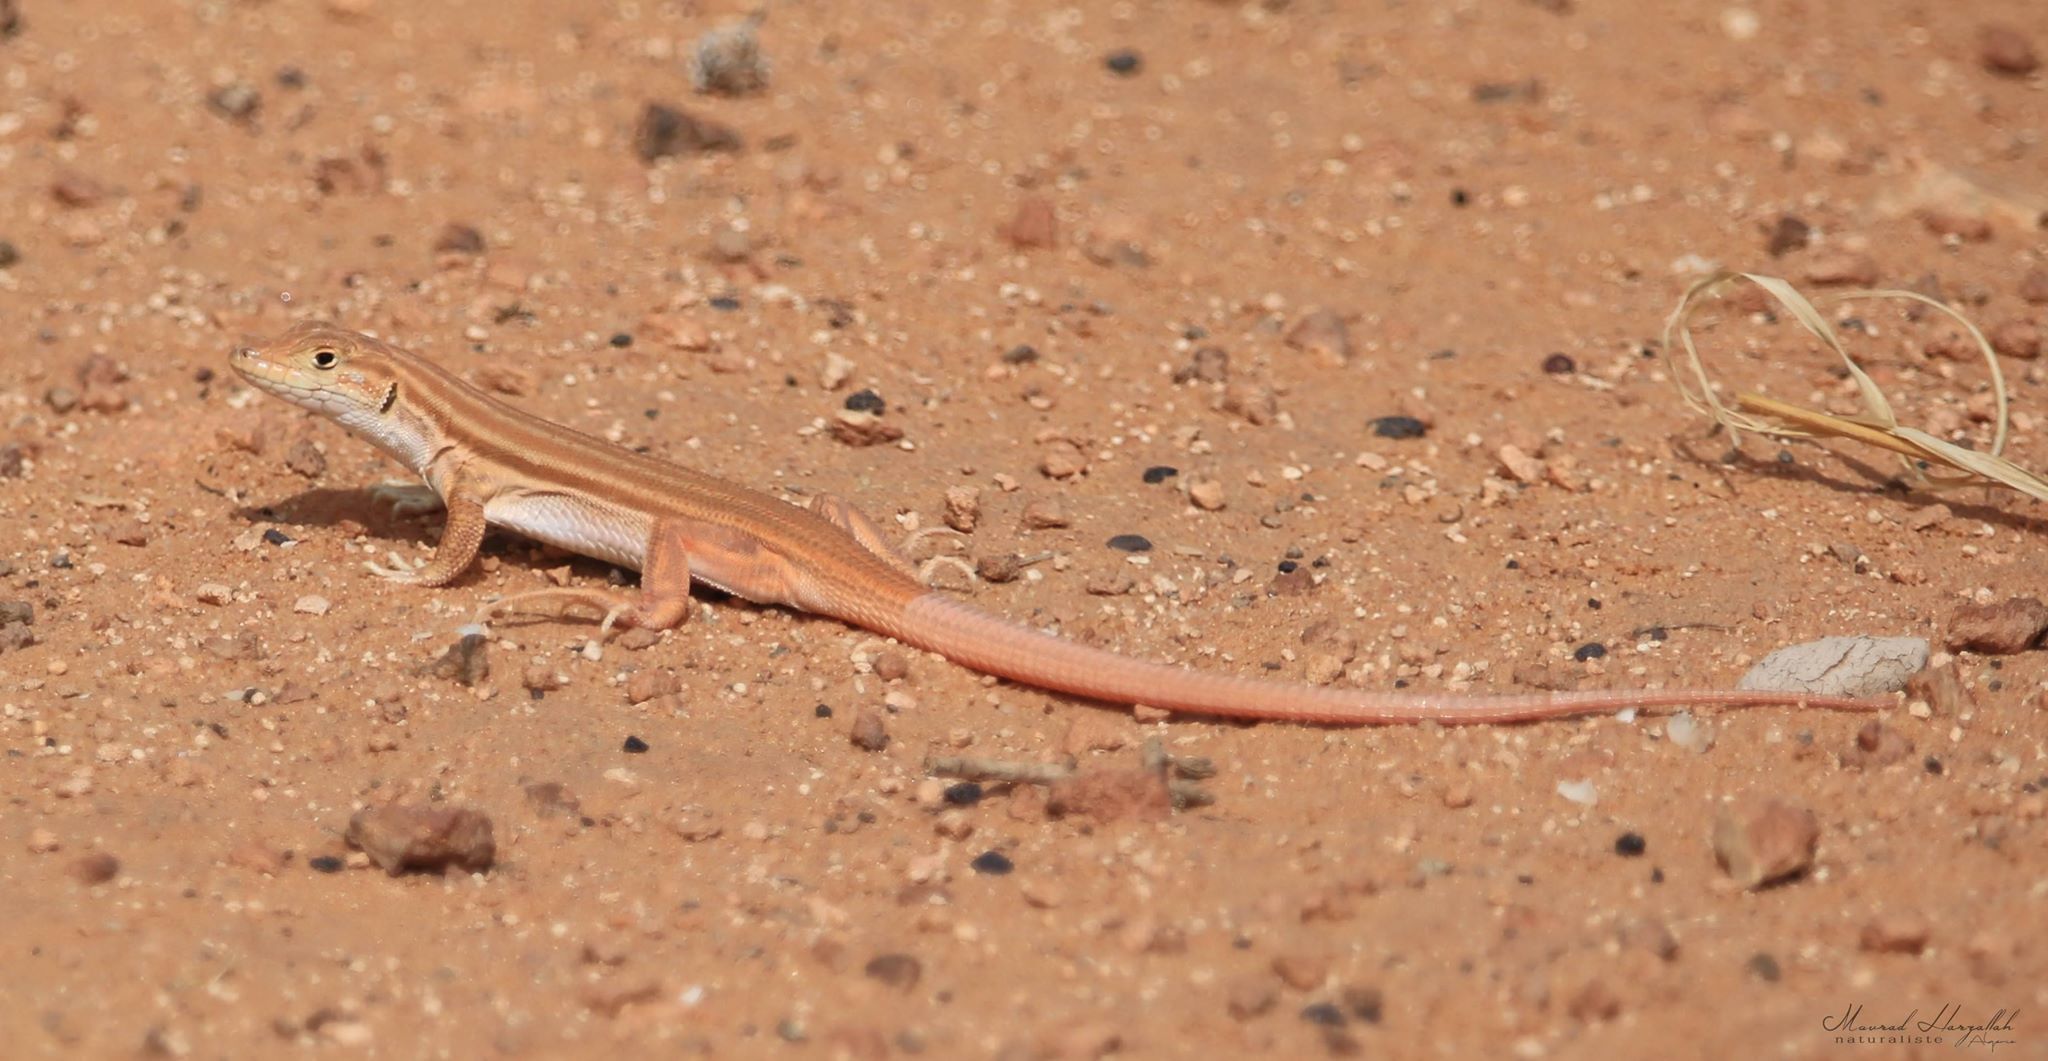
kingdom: Animalia
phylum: Chordata
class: Squamata
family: Lacertidae
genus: Acanthodactylus
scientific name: Acanthodactylus boskianus
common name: Bosc’s fringe-toed lizard
